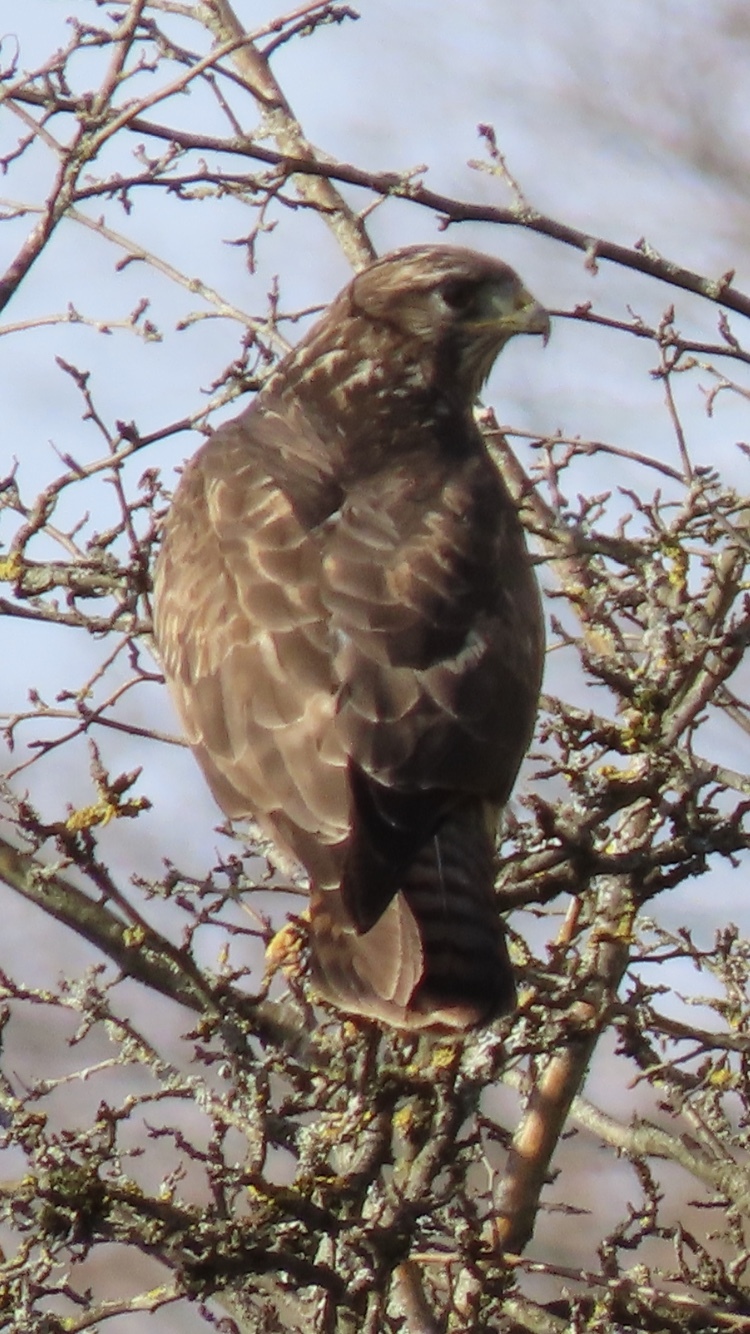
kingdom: Animalia
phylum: Chordata
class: Aves
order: Accipitriformes
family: Accipitridae
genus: Buteo
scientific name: Buteo buteo
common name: Common buzzard
